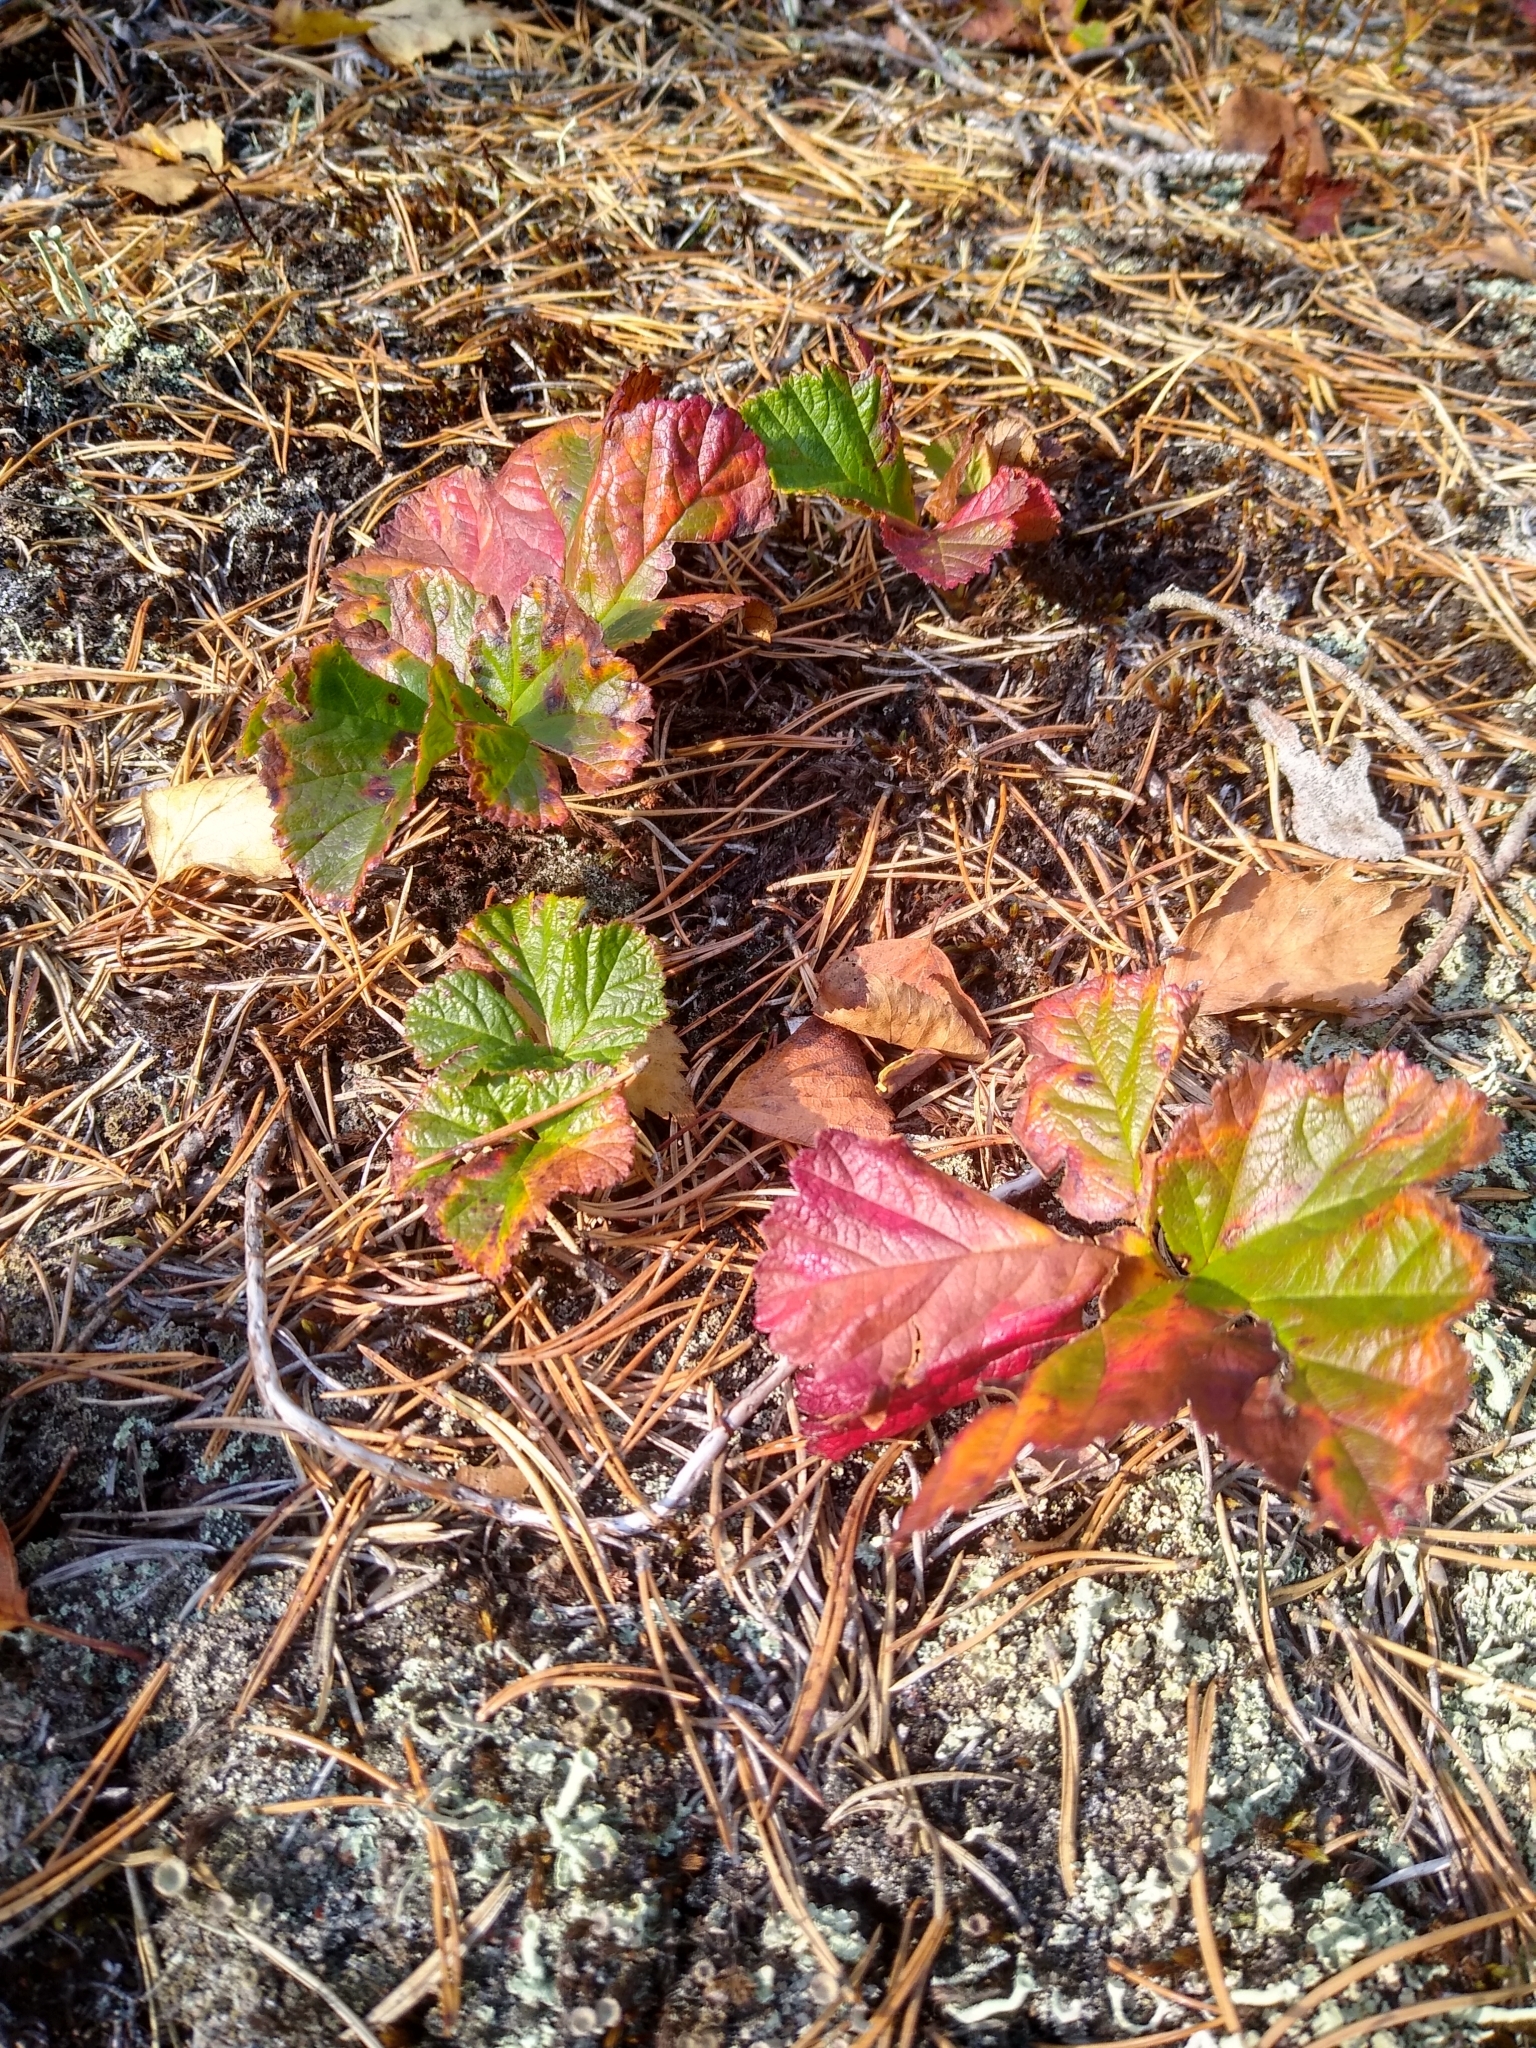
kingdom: Plantae
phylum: Tracheophyta
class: Magnoliopsida
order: Rosales
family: Rosaceae
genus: Rubus
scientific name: Rubus chamaemorus
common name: Cloudberry
